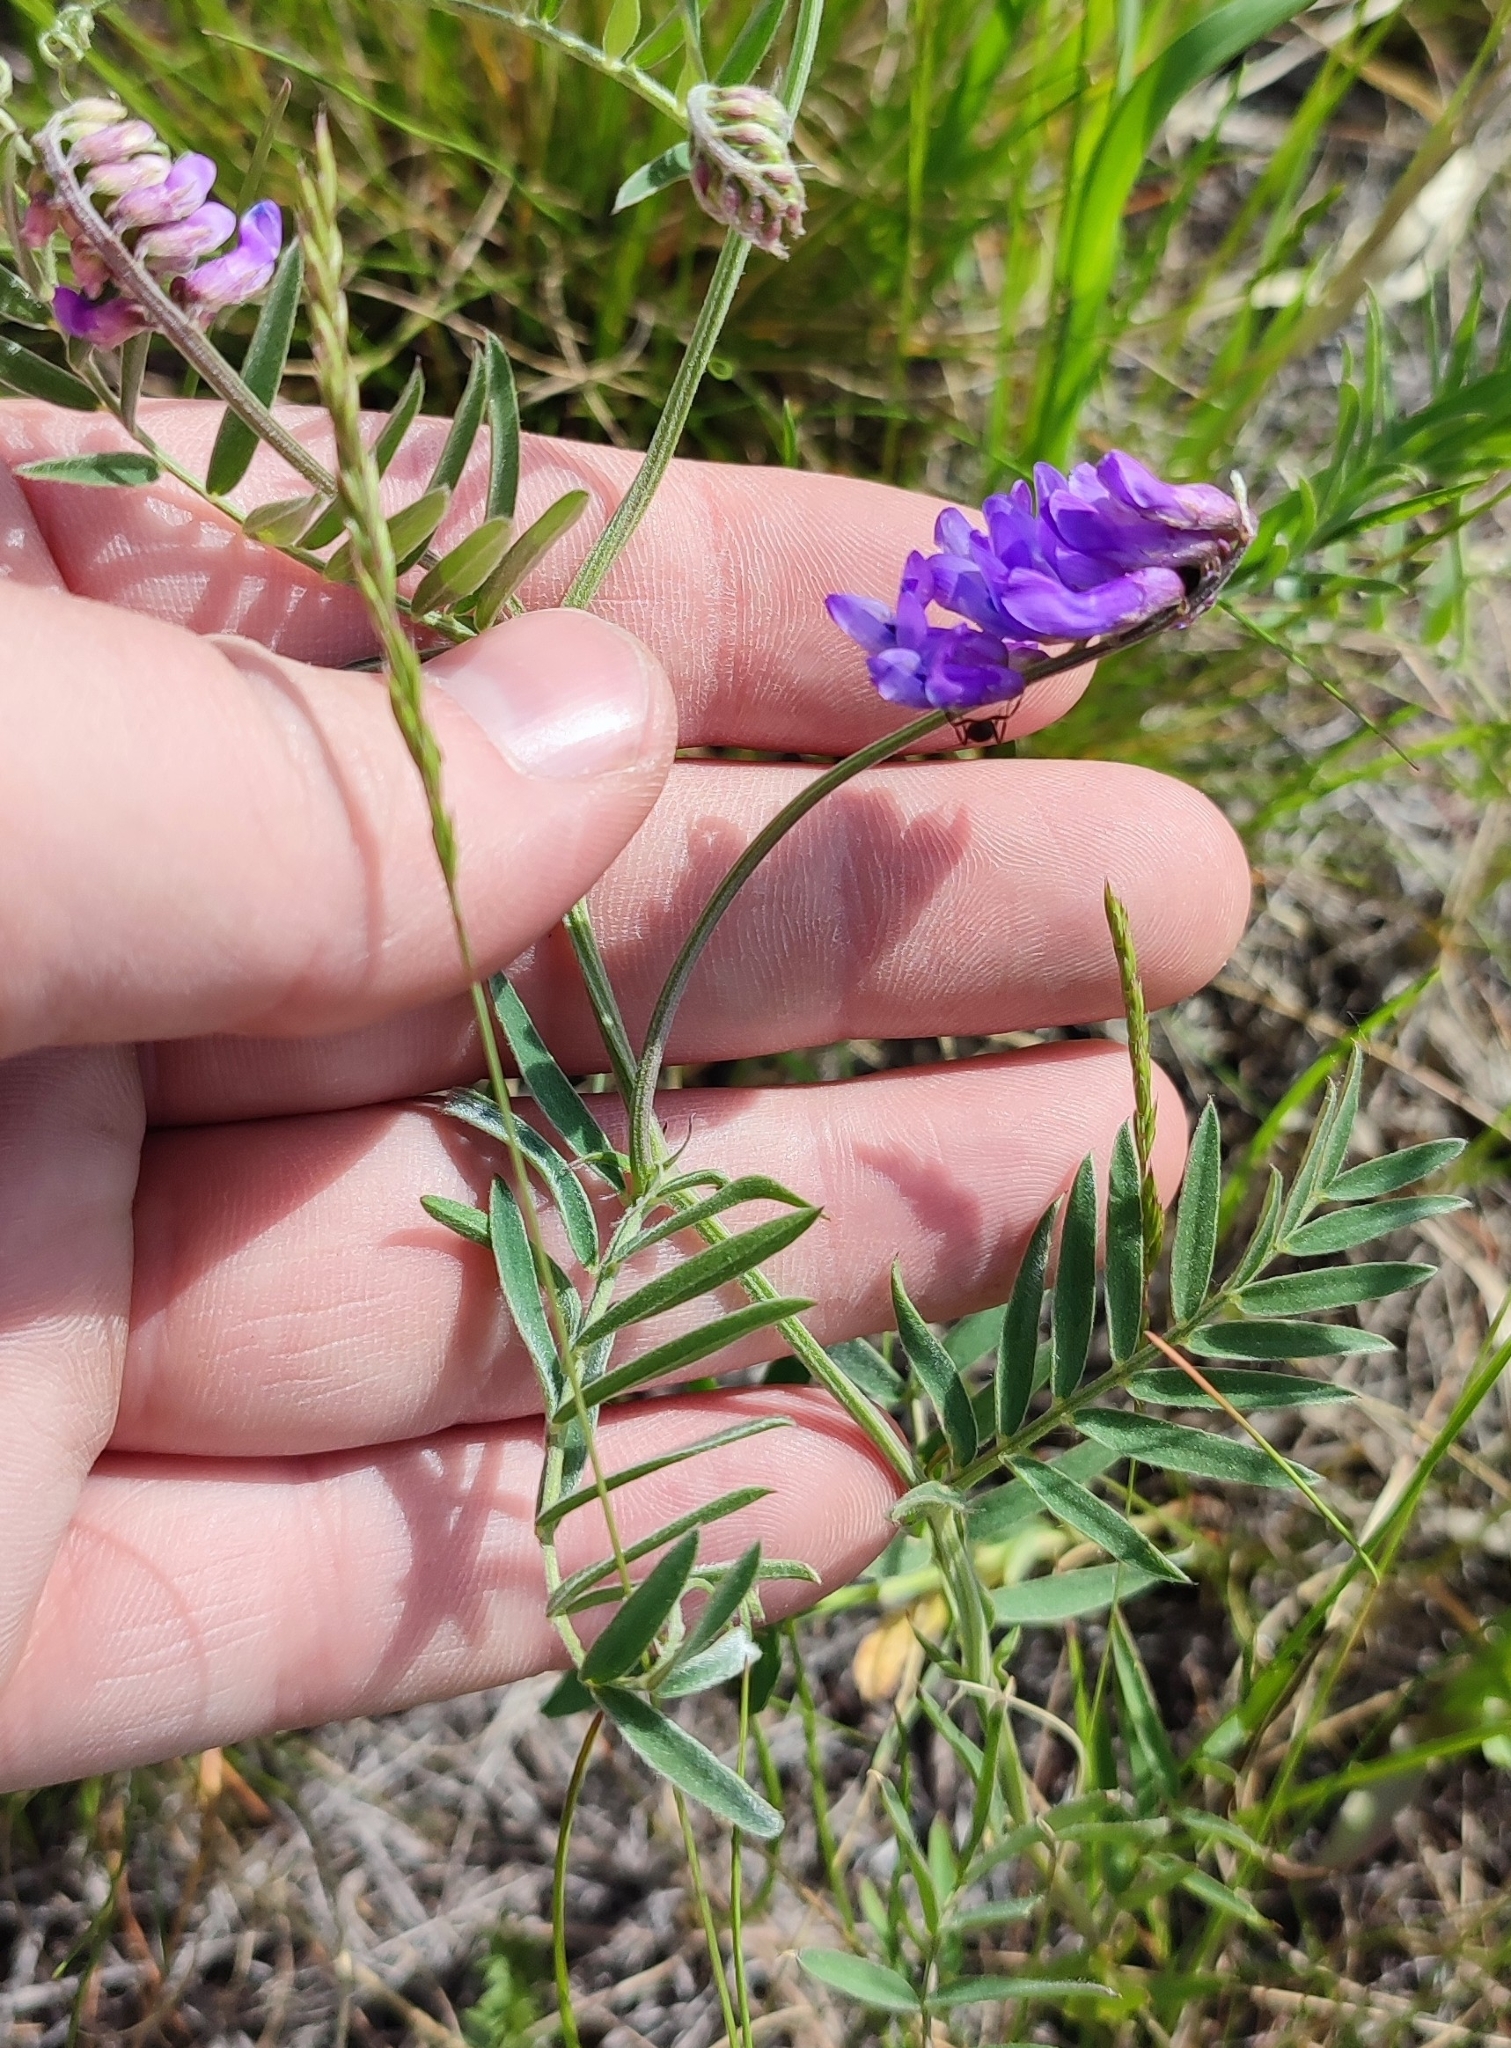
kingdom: Plantae
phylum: Tracheophyta
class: Magnoliopsida
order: Fabales
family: Fabaceae
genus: Vicia
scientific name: Vicia cracca
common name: Bird vetch
